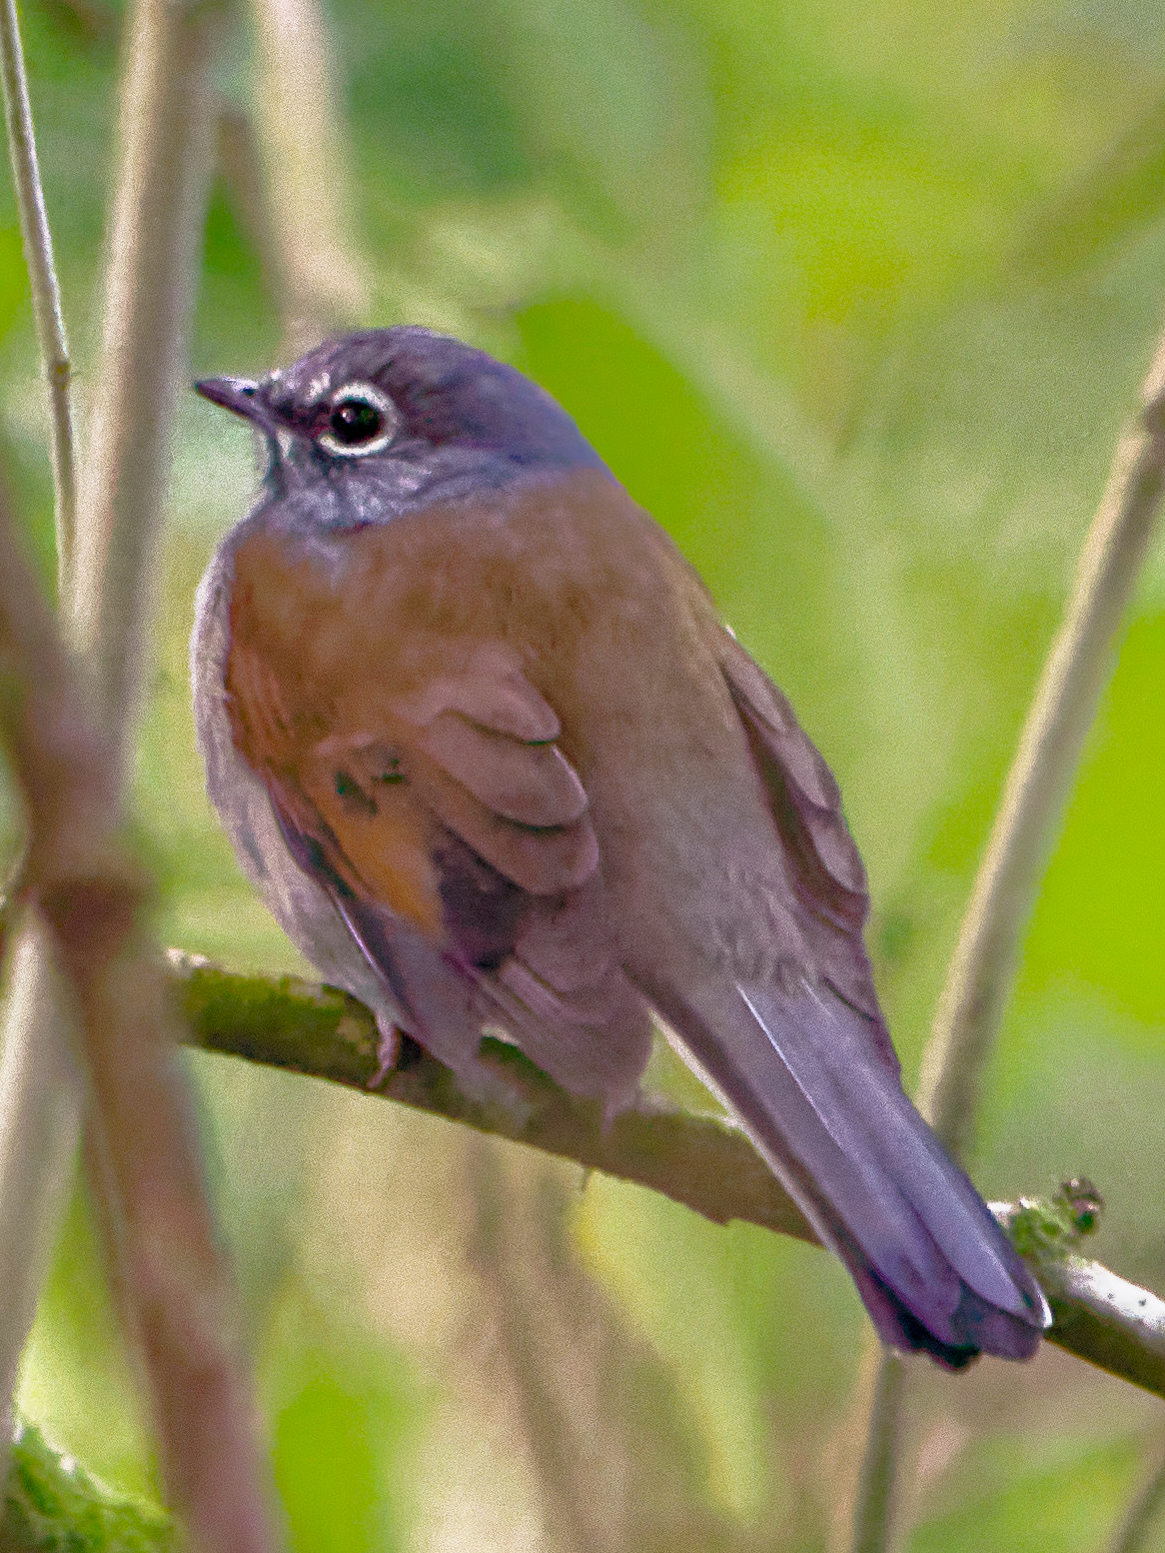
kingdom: Animalia
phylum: Chordata
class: Aves
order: Passeriformes
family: Turdidae
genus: Myadestes
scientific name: Myadestes occidentalis
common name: Brown-backed solitaire
